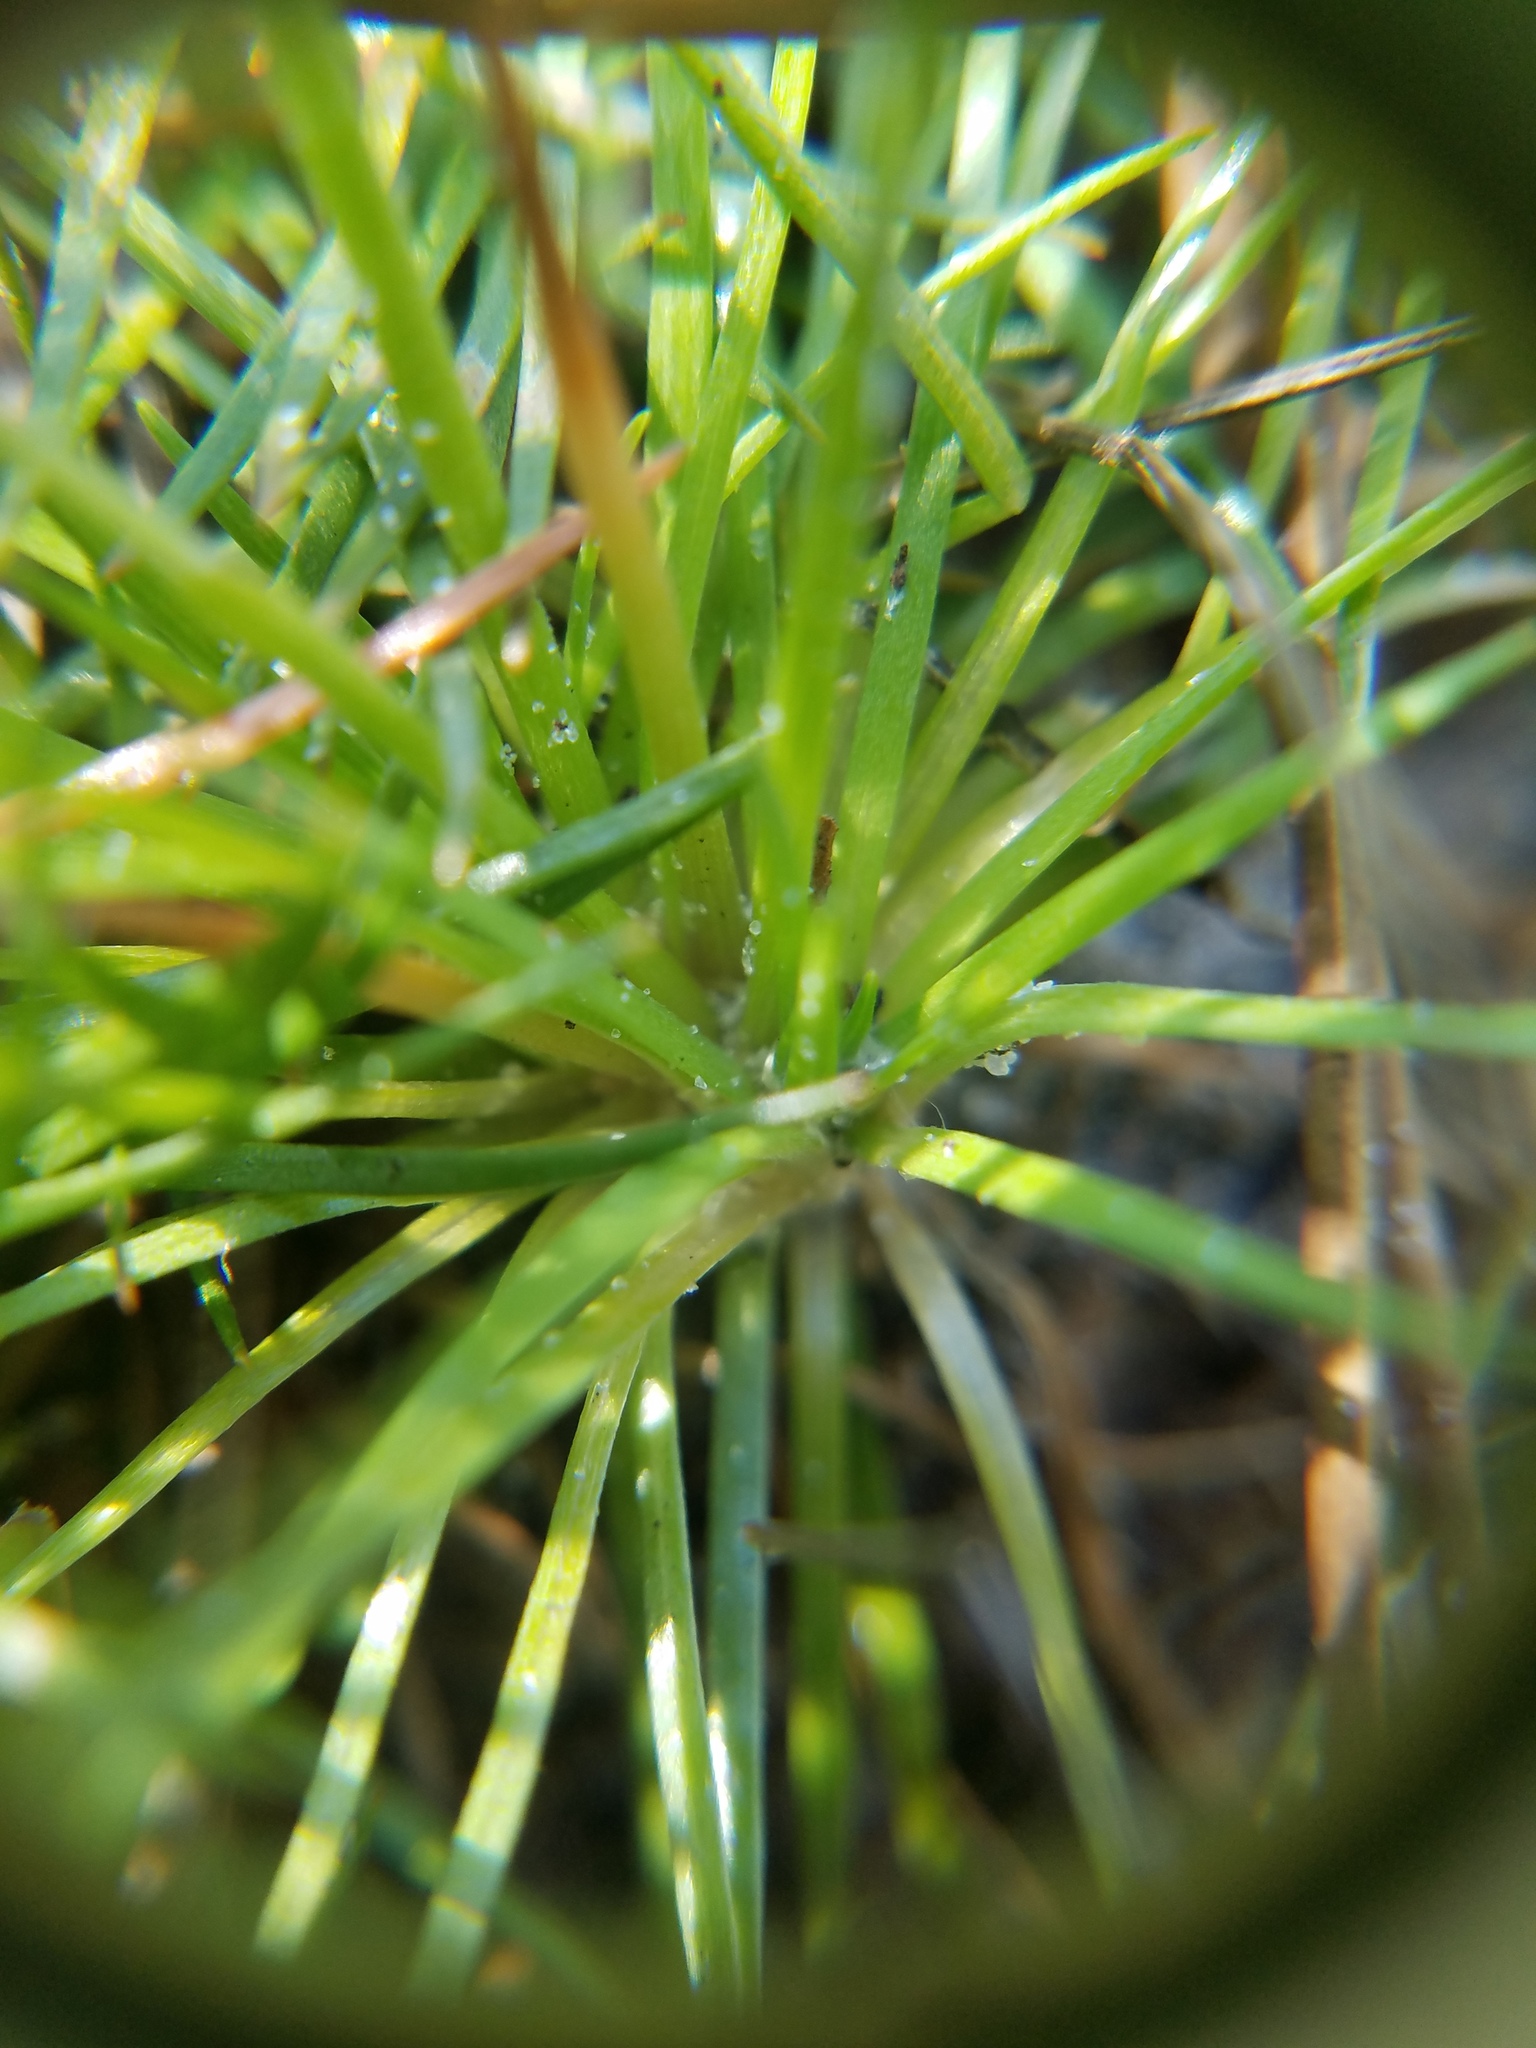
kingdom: Plantae
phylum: Tracheophyta
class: Liliopsida
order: Poales
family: Eriocaulaceae
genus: Syngonanthus
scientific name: Syngonanthus flavidulus
